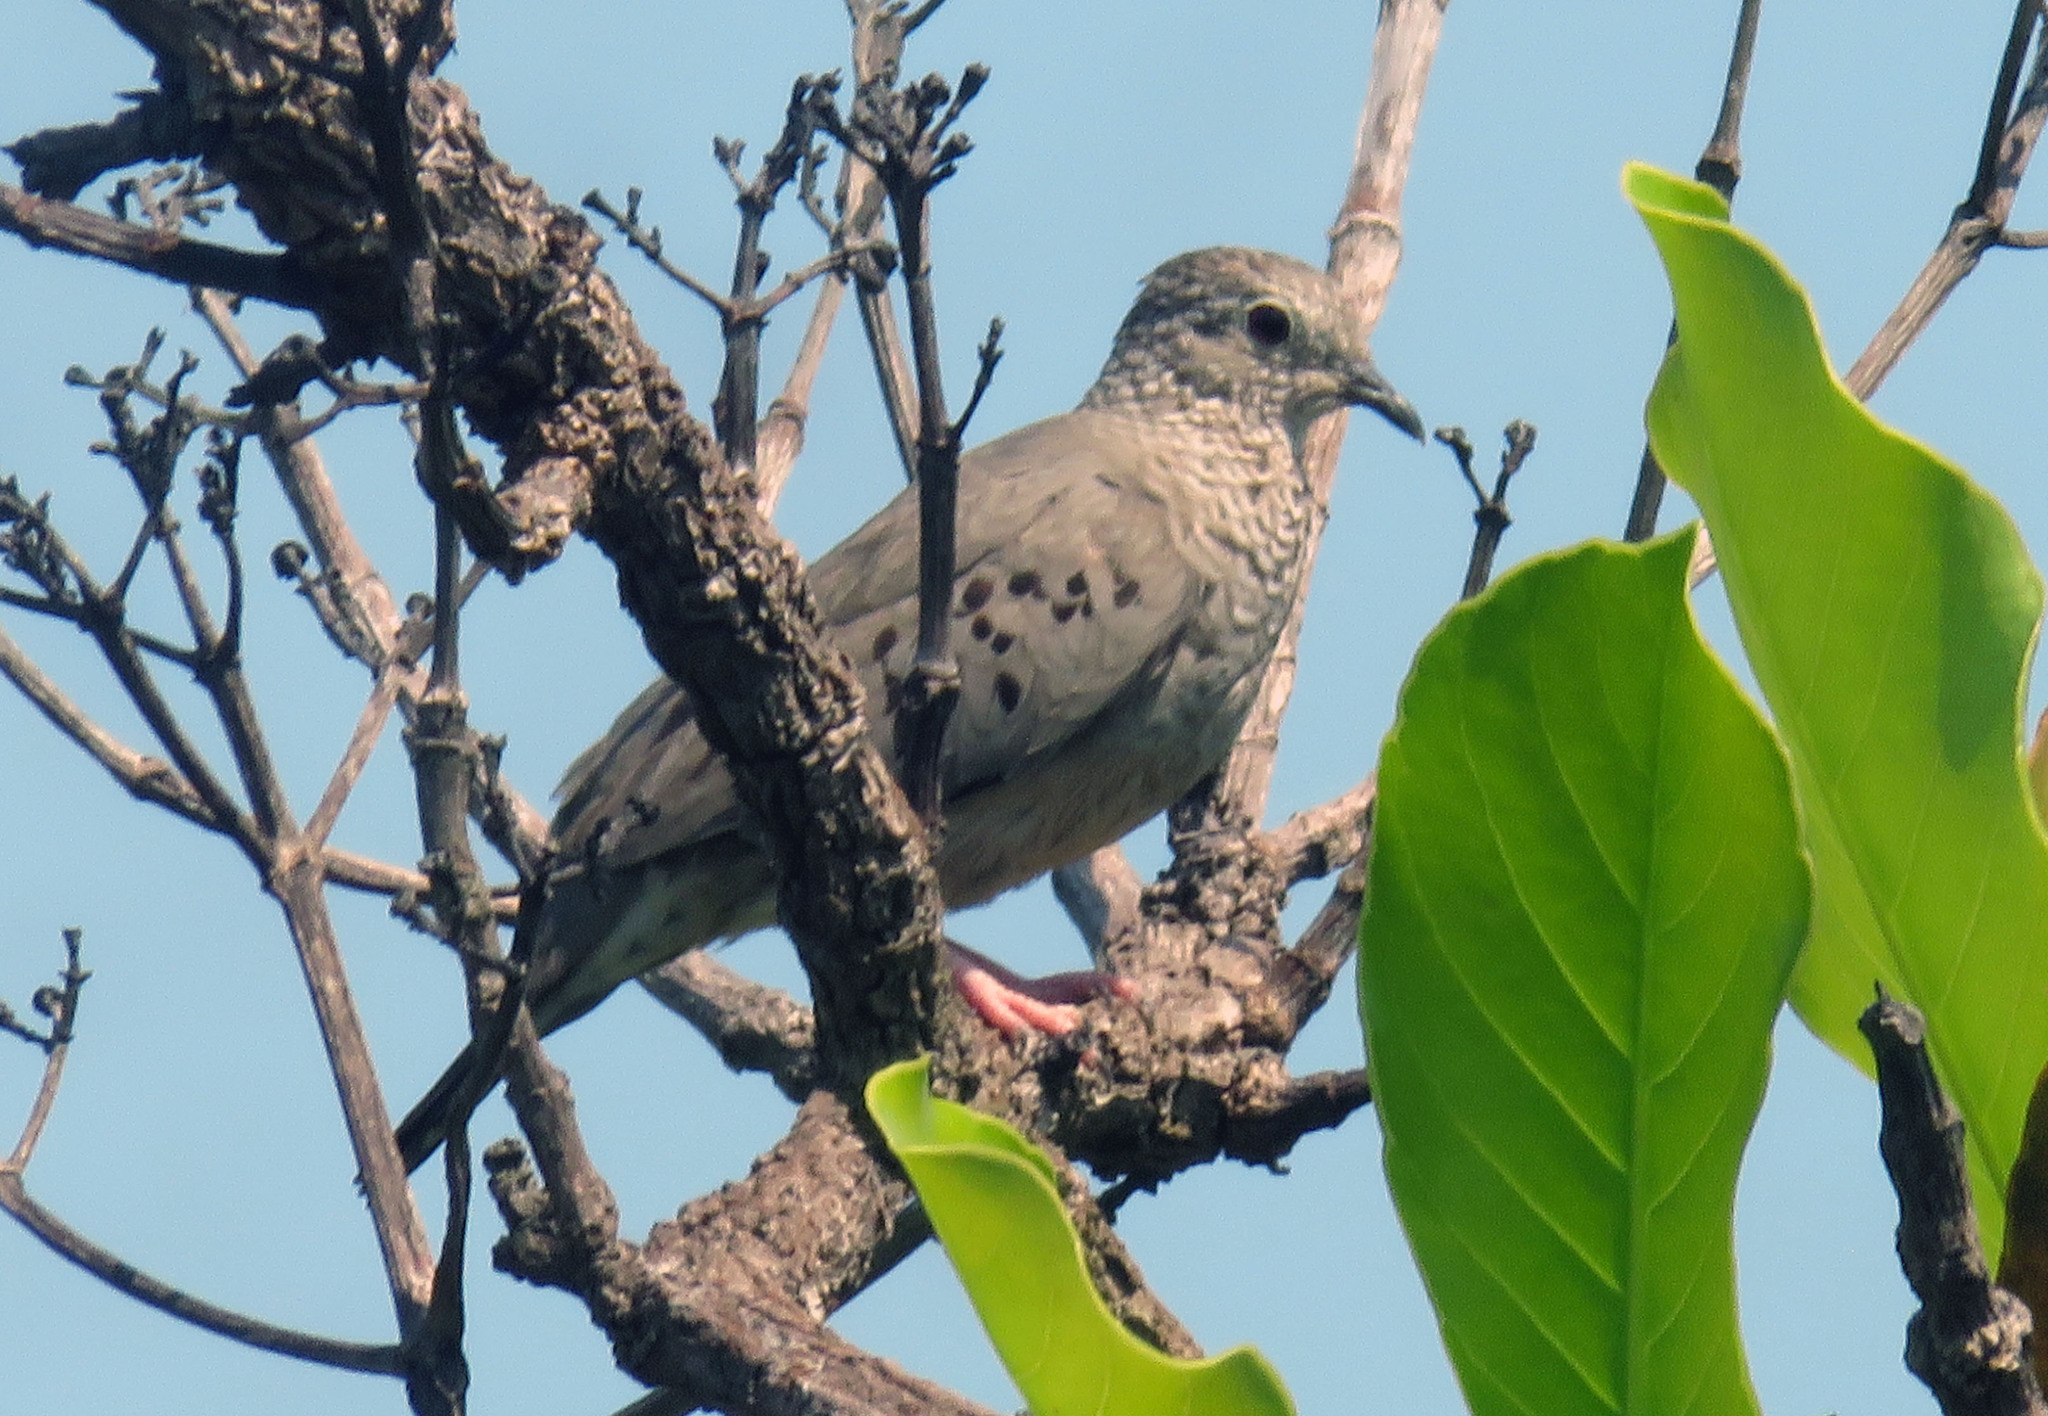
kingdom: Animalia
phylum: Chordata
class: Aves
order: Columbiformes
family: Columbidae
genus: Columbina
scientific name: Columbina passerina
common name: Common ground-dove
